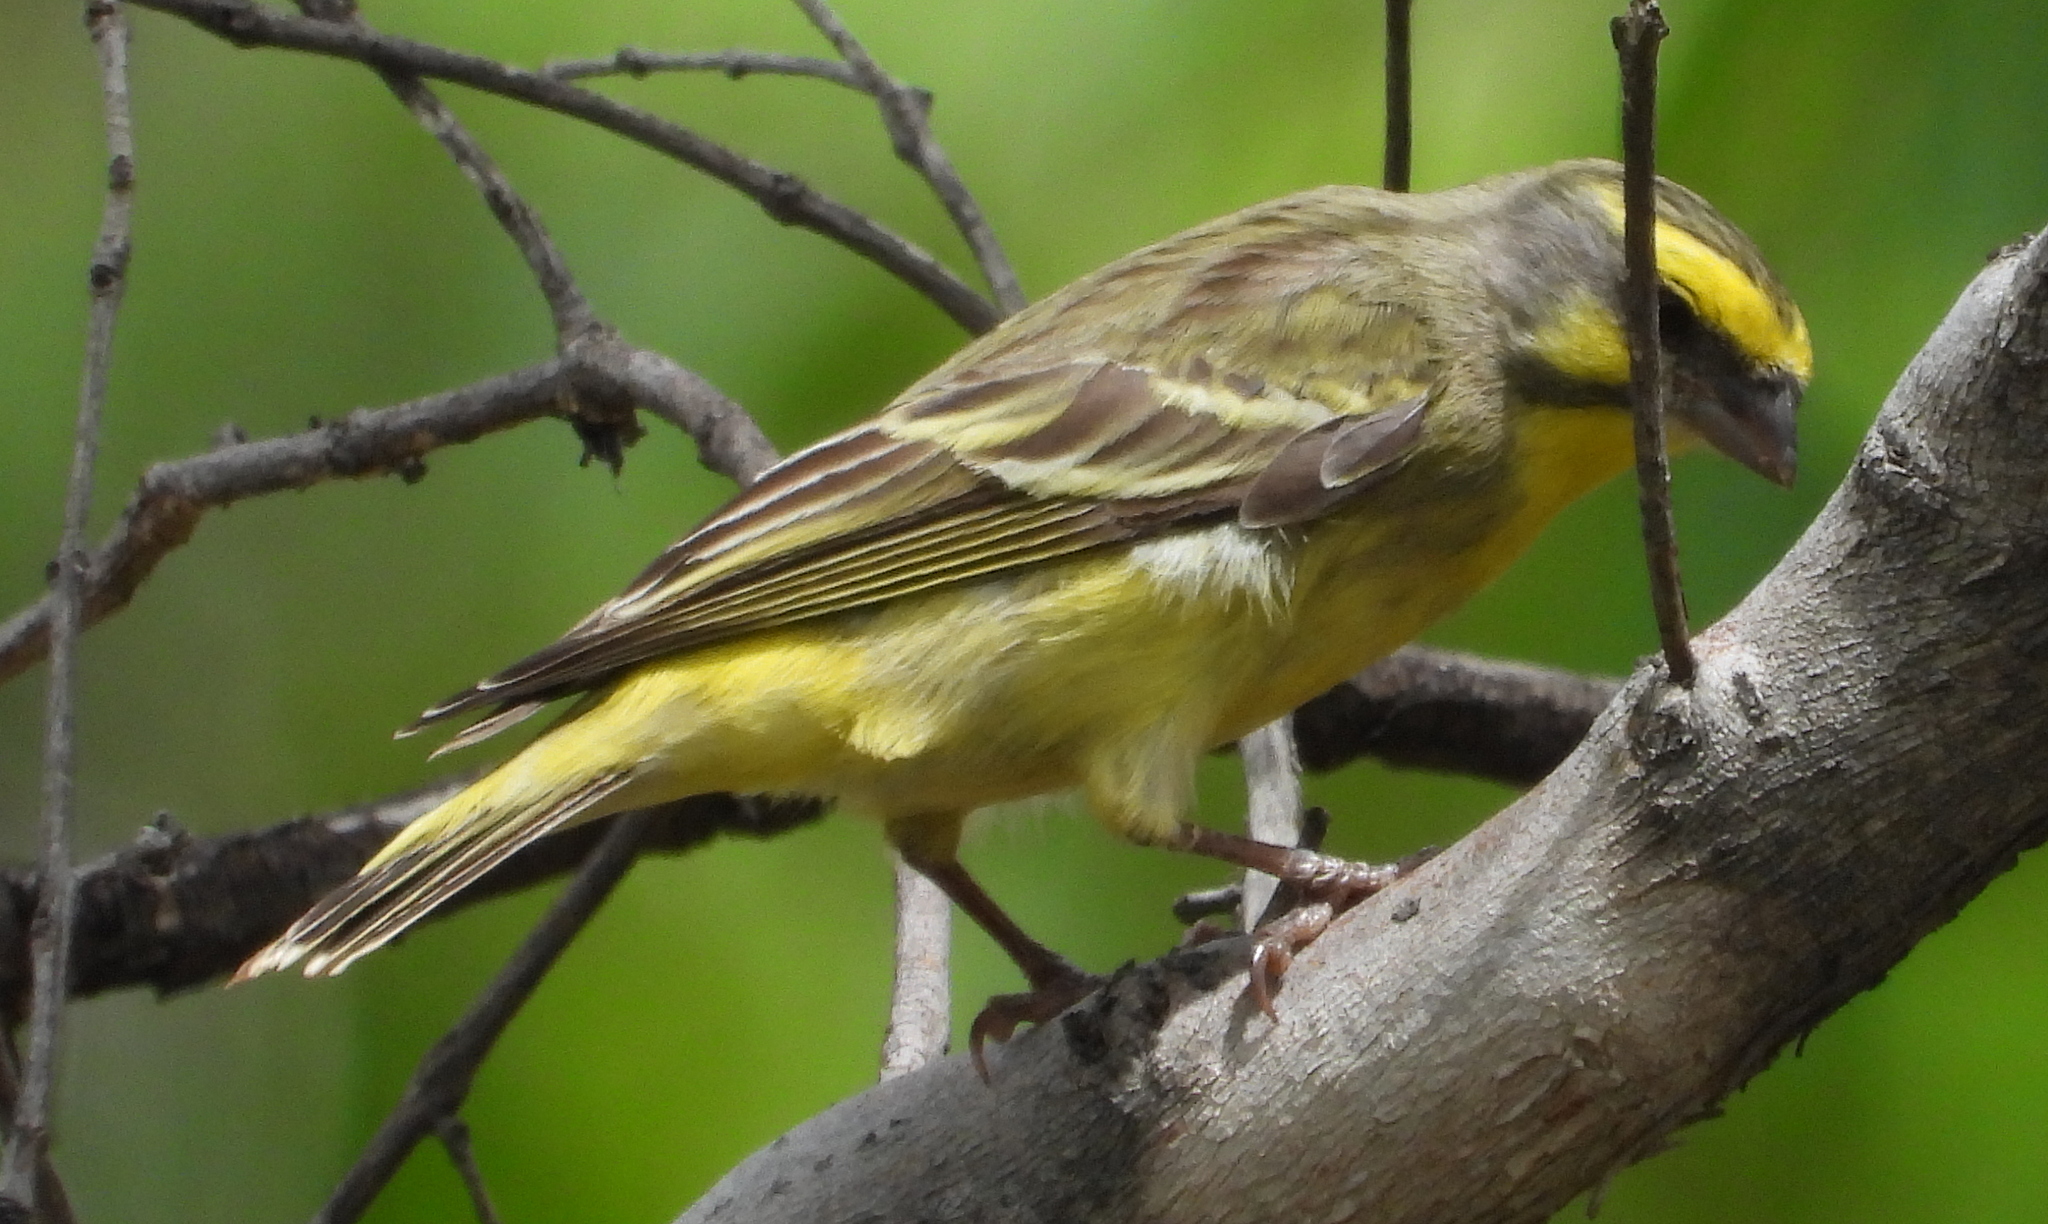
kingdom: Animalia
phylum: Chordata
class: Aves
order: Passeriformes
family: Fringillidae
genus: Crithagra
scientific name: Crithagra mozambica
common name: Yellow-fronted canary
